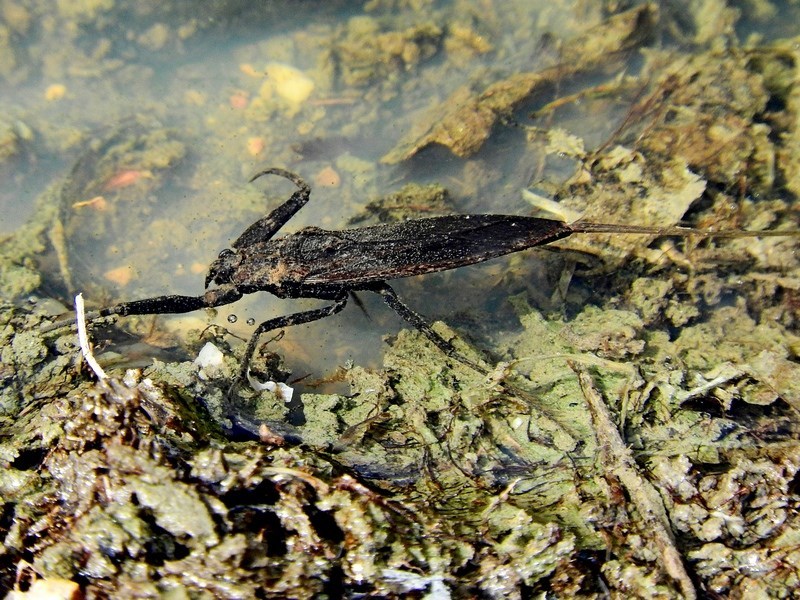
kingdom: Animalia
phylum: Arthropoda
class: Insecta
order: Hemiptera
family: Nepidae
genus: Laccotrephes
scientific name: Laccotrephes tristis
